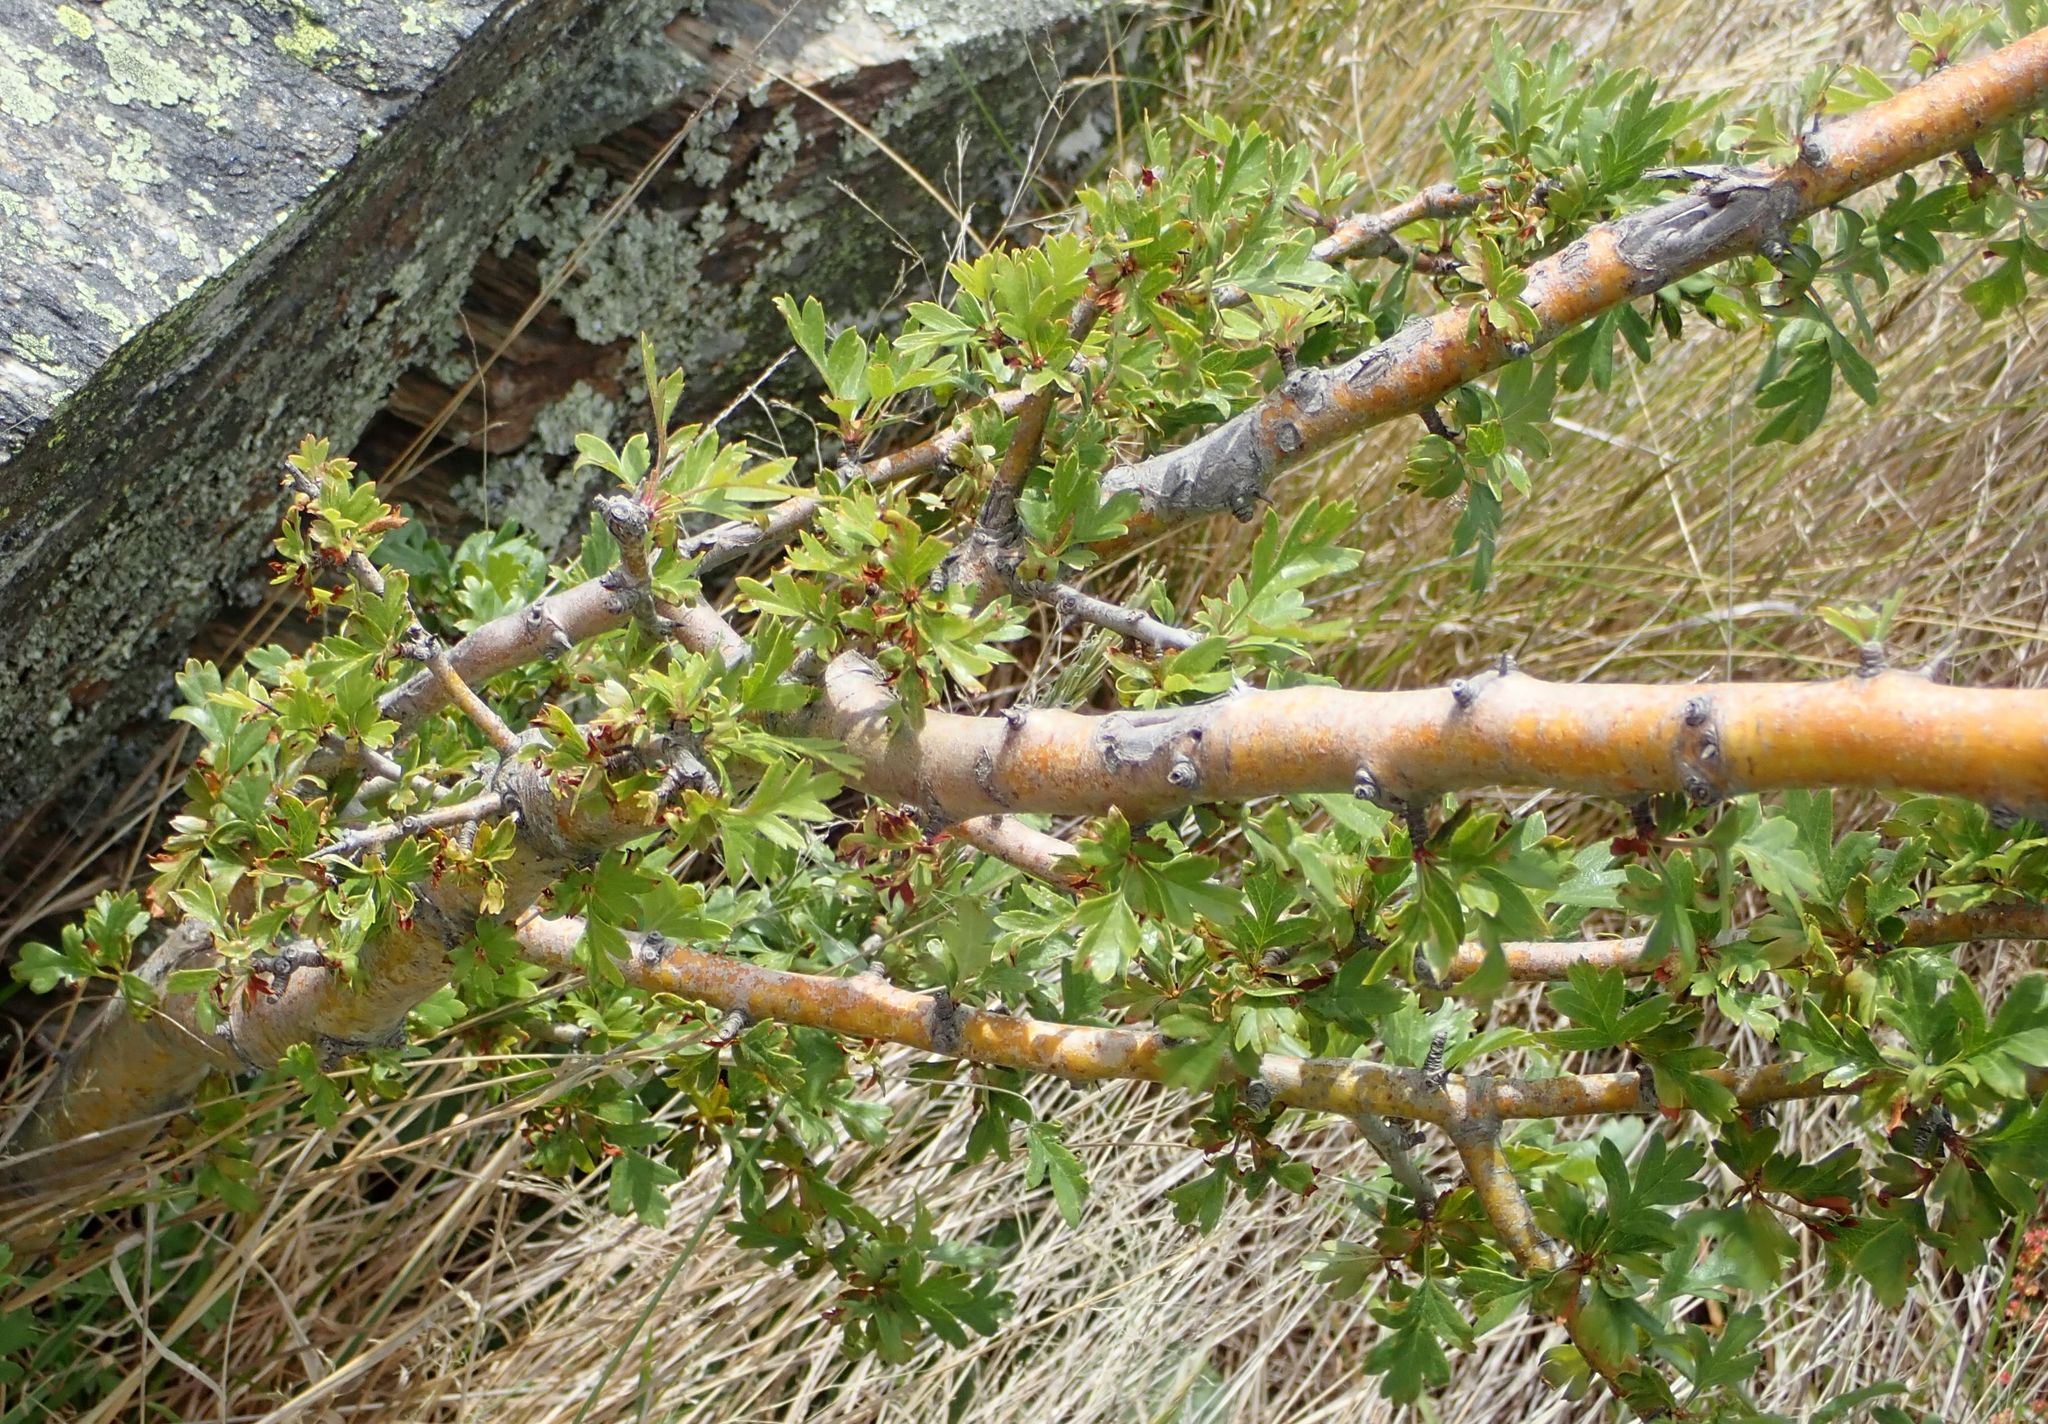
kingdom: Plantae
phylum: Tracheophyta
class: Magnoliopsida
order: Rosales
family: Rosaceae
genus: Crataegus
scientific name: Crataegus monogyna
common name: Hawthorn
